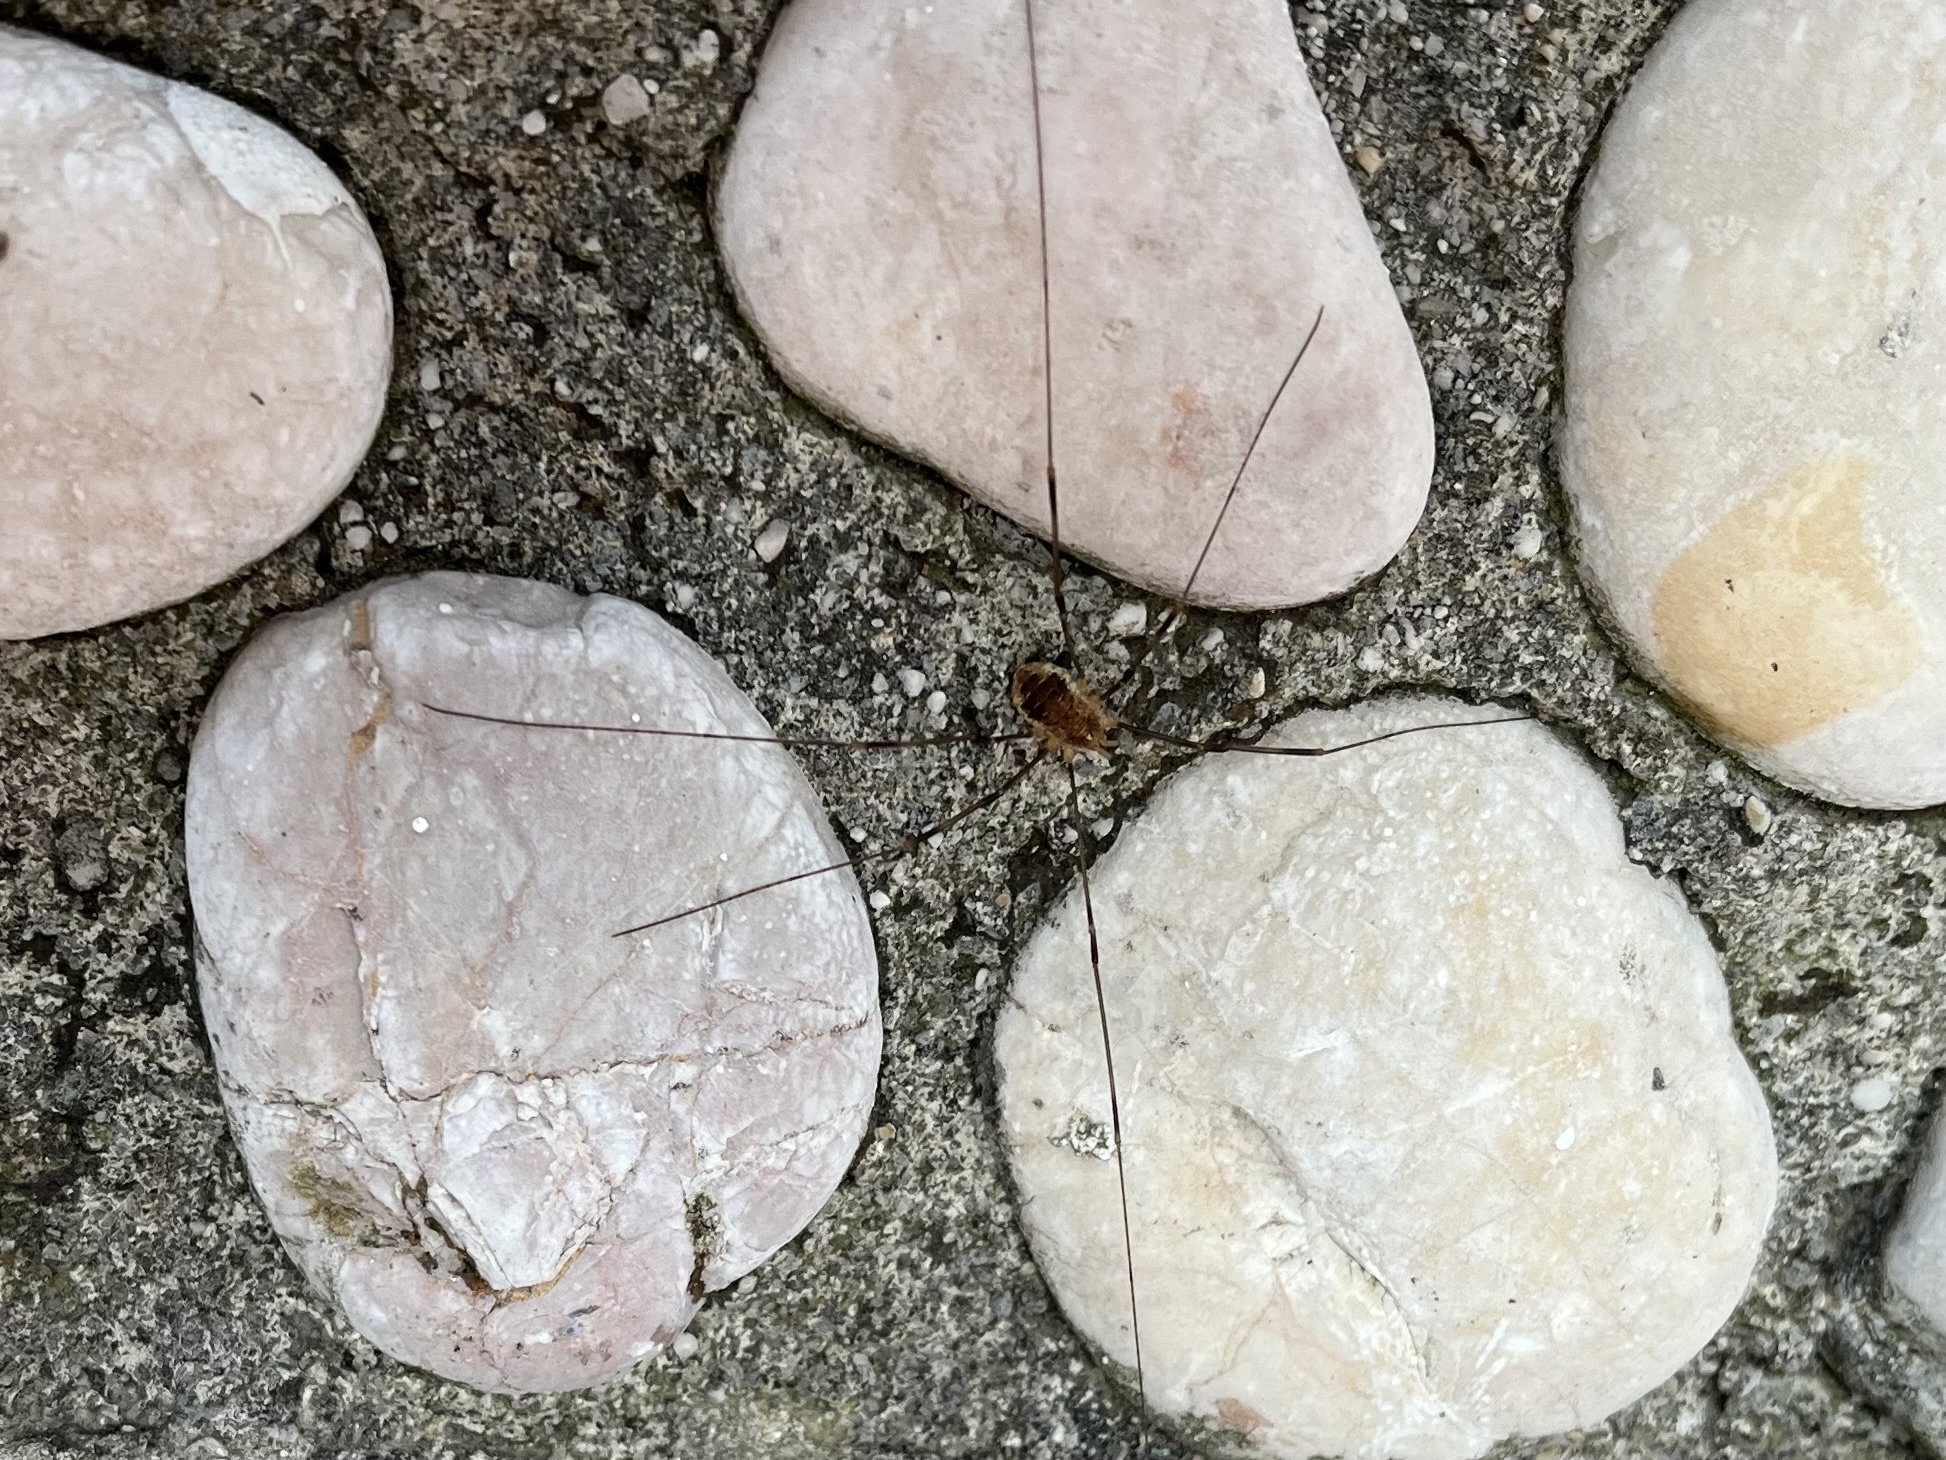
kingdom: Animalia
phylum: Arthropoda
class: Arachnida
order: Opiliones
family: Phalangiidae
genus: Opilio
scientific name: Opilio canestrinii
